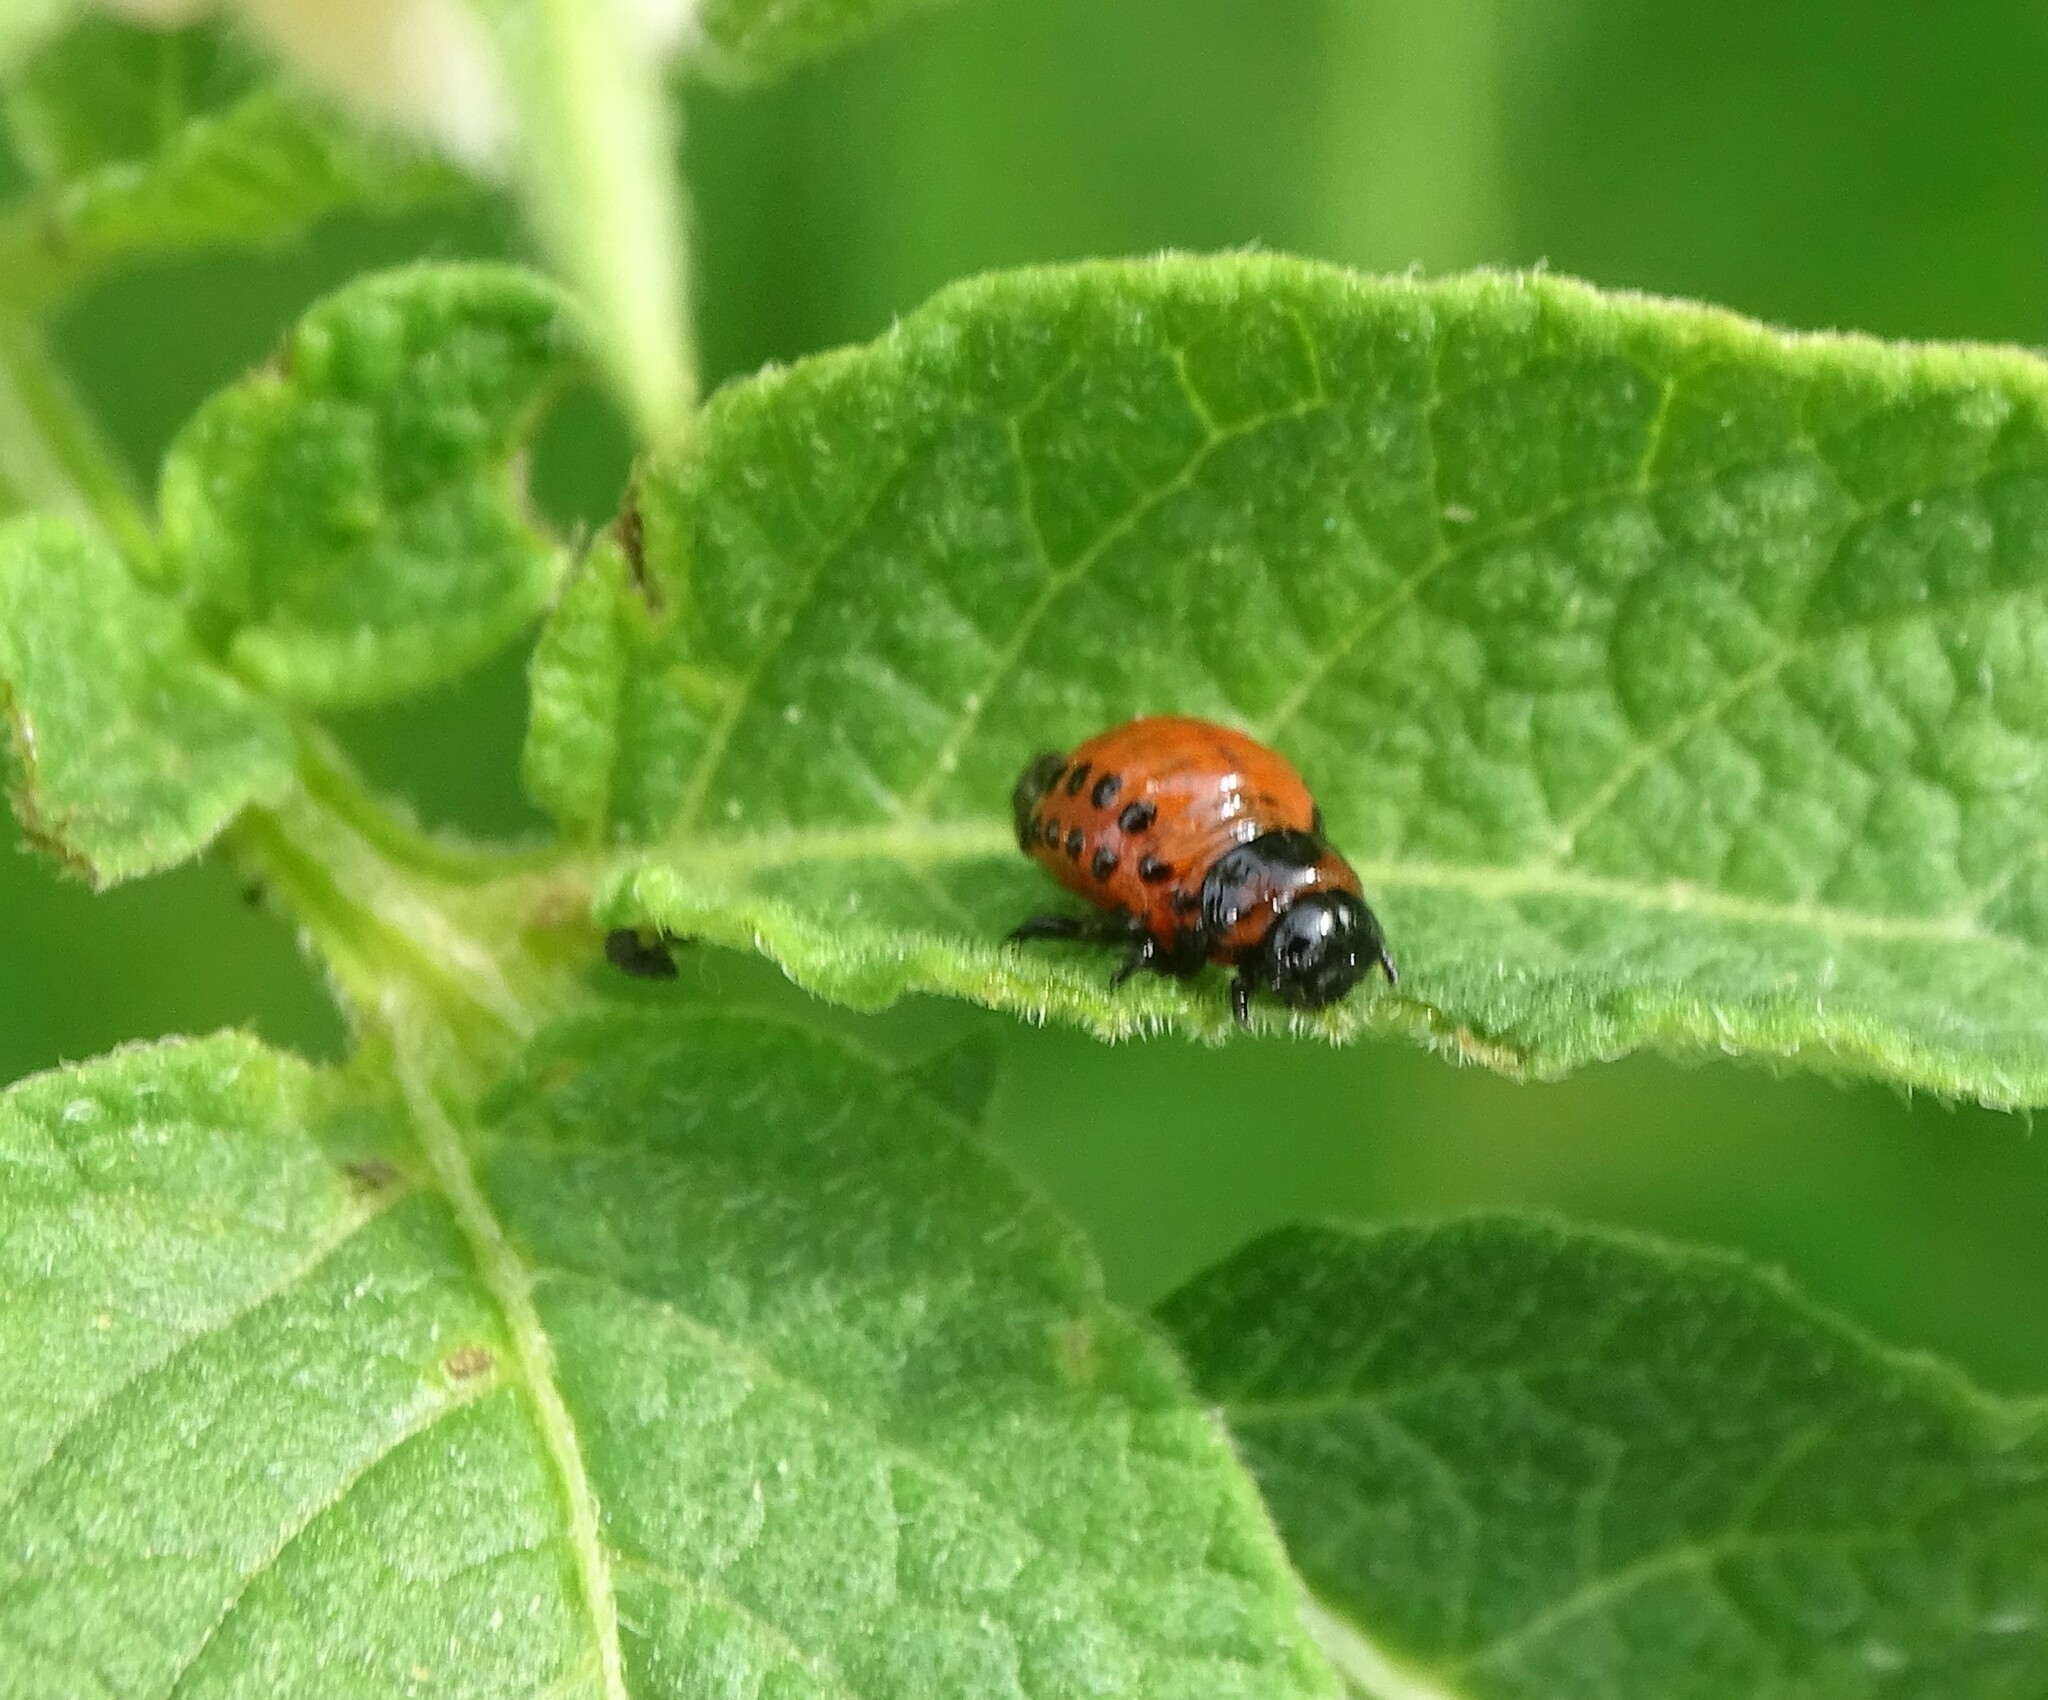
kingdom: Animalia
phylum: Arthropoda
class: Insecta
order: Coleoptera
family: Chrysomelidae
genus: Leptinotarsa
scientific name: Leptinotarsa decemlineata
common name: Colorado potato beetle
